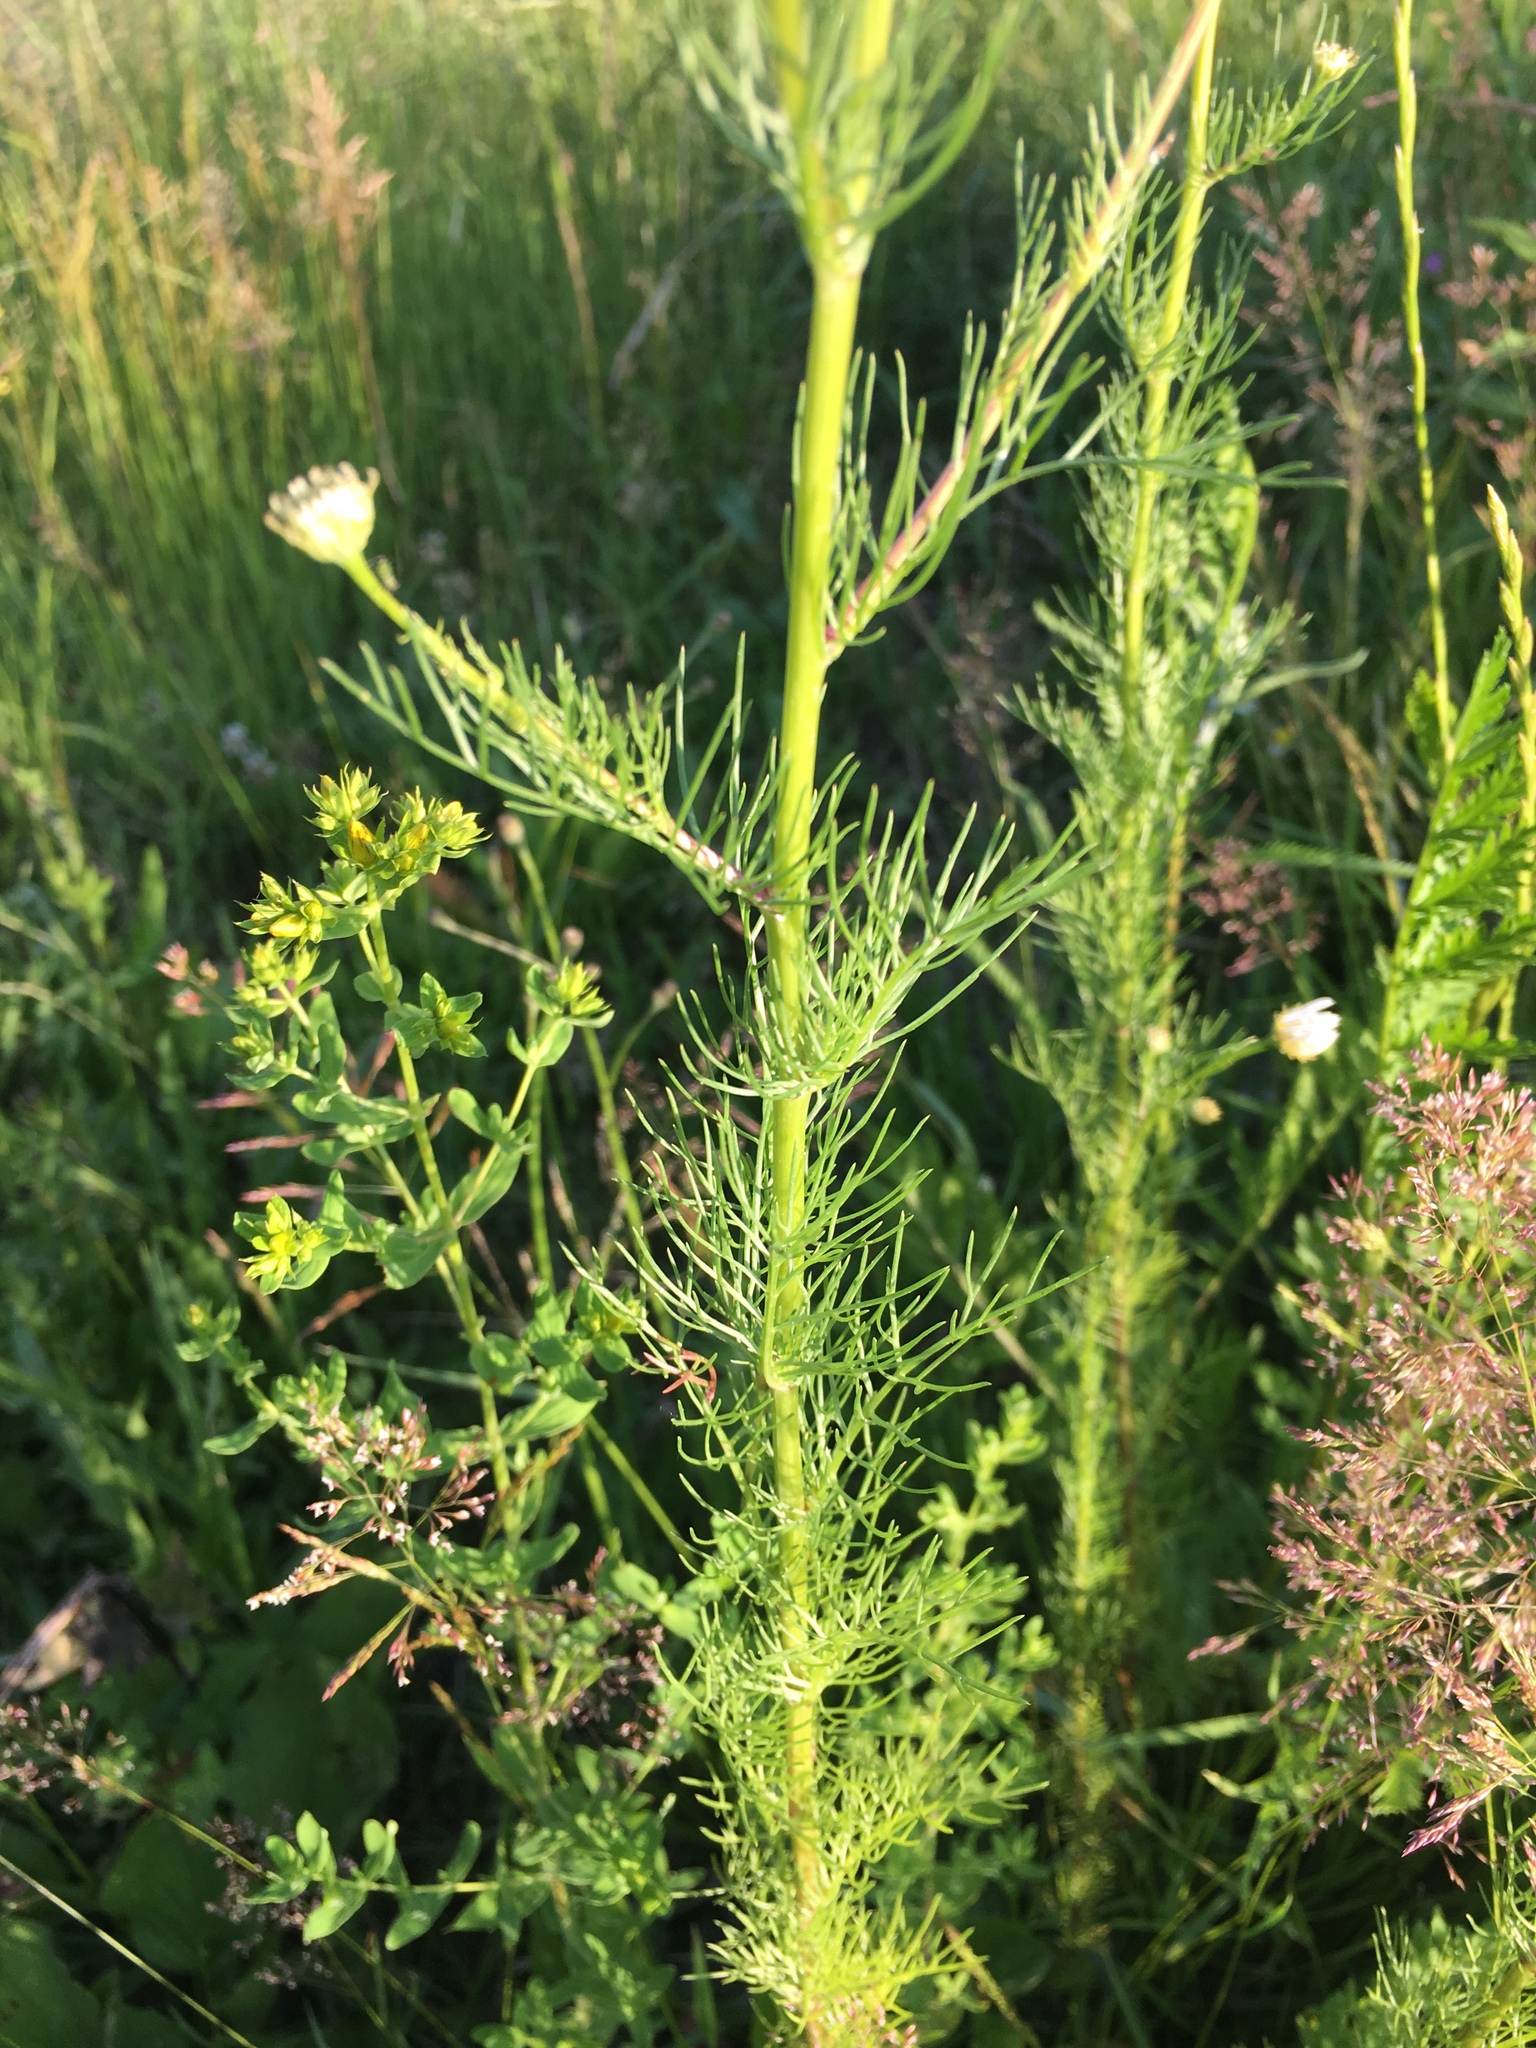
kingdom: Plantae
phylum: Tracheophyta
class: Magnoliopsida
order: Asterales
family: Asteraceae
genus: Tripleurospermum
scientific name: Tripleurospermum inodorum
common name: Scentless mayweed
